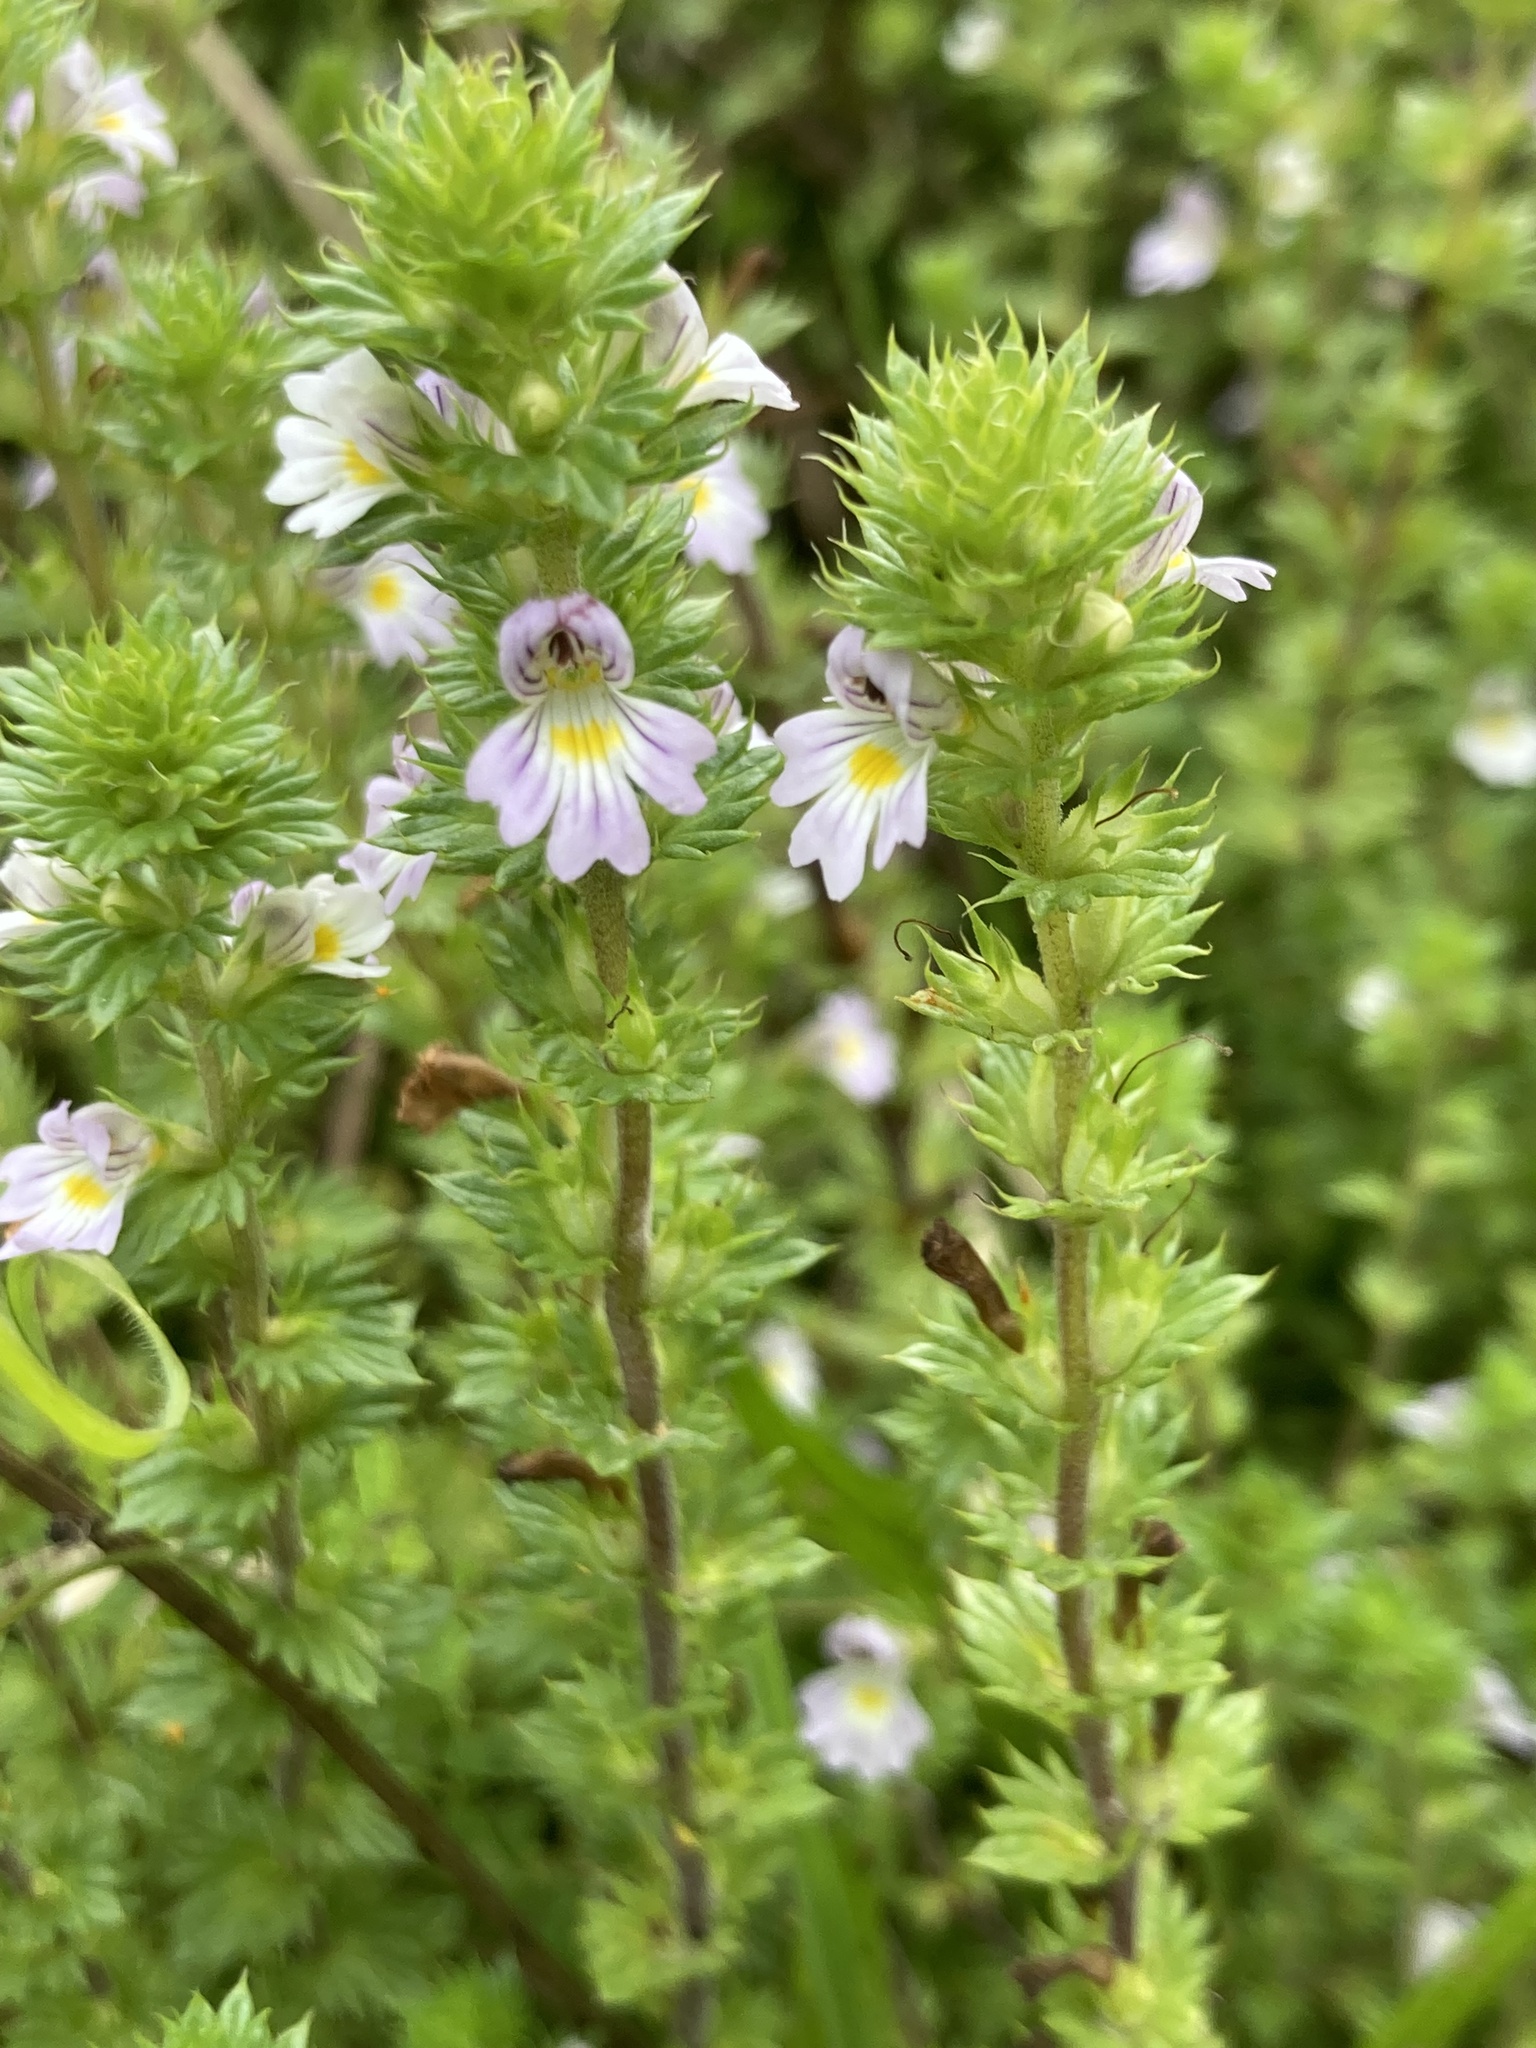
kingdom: Plantae
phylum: Tracheophyta
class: Magnoliopsida
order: Lamiales
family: Orobanchaceae
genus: Euphrasia
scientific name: Euphrasia stricta
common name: Drug eyebright
